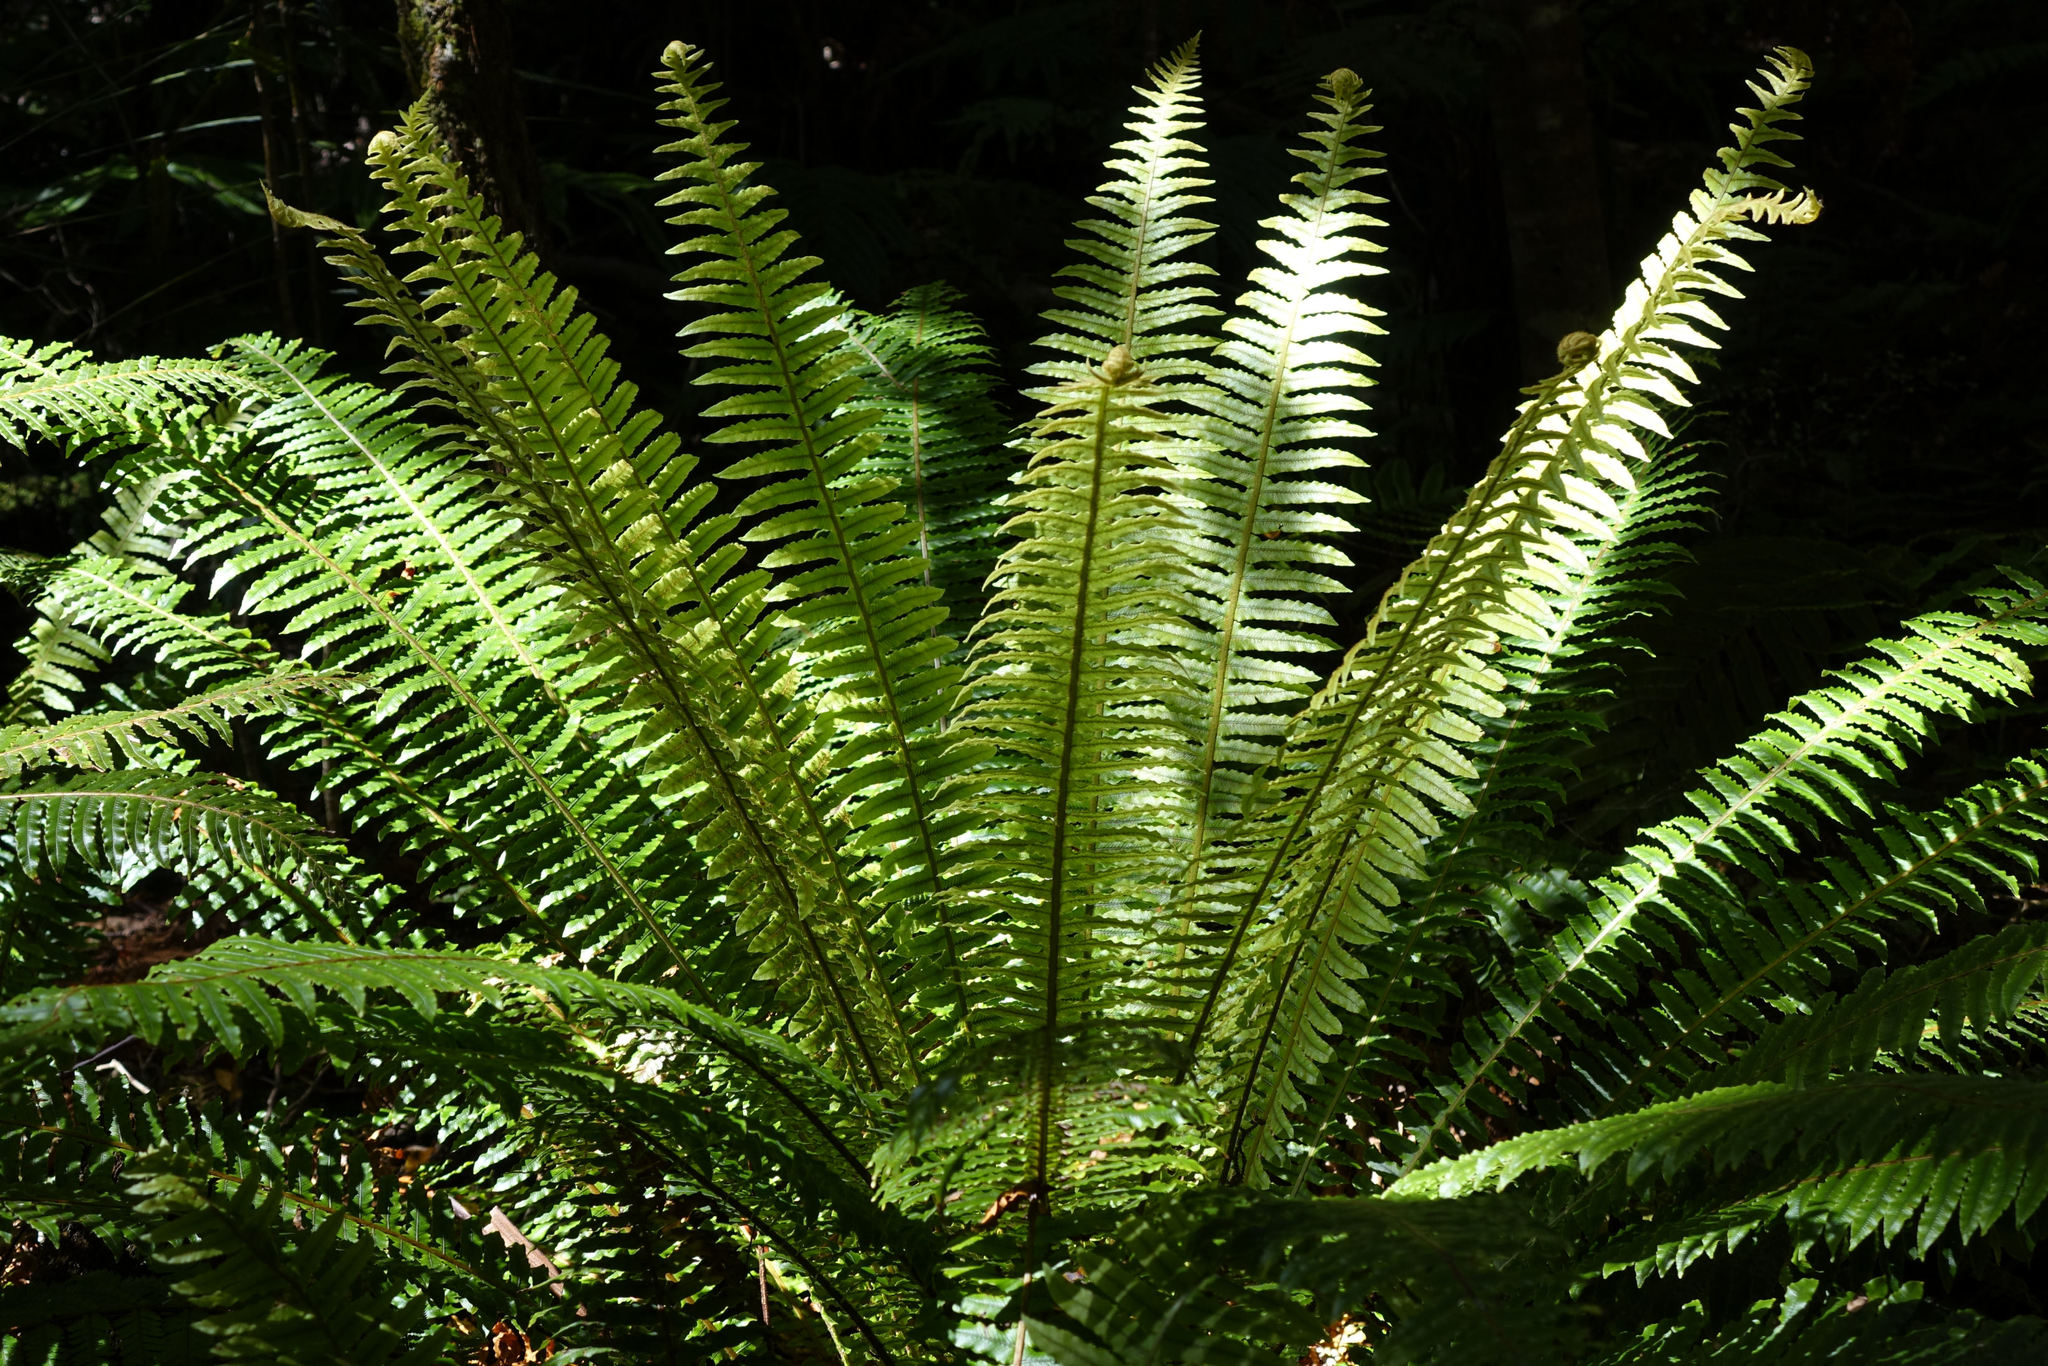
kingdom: Plantae
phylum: Tracheophyta
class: Polypodiopsida
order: Polypodiales
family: Blechnaceae
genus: Lomaria
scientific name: Lomaria discolor
